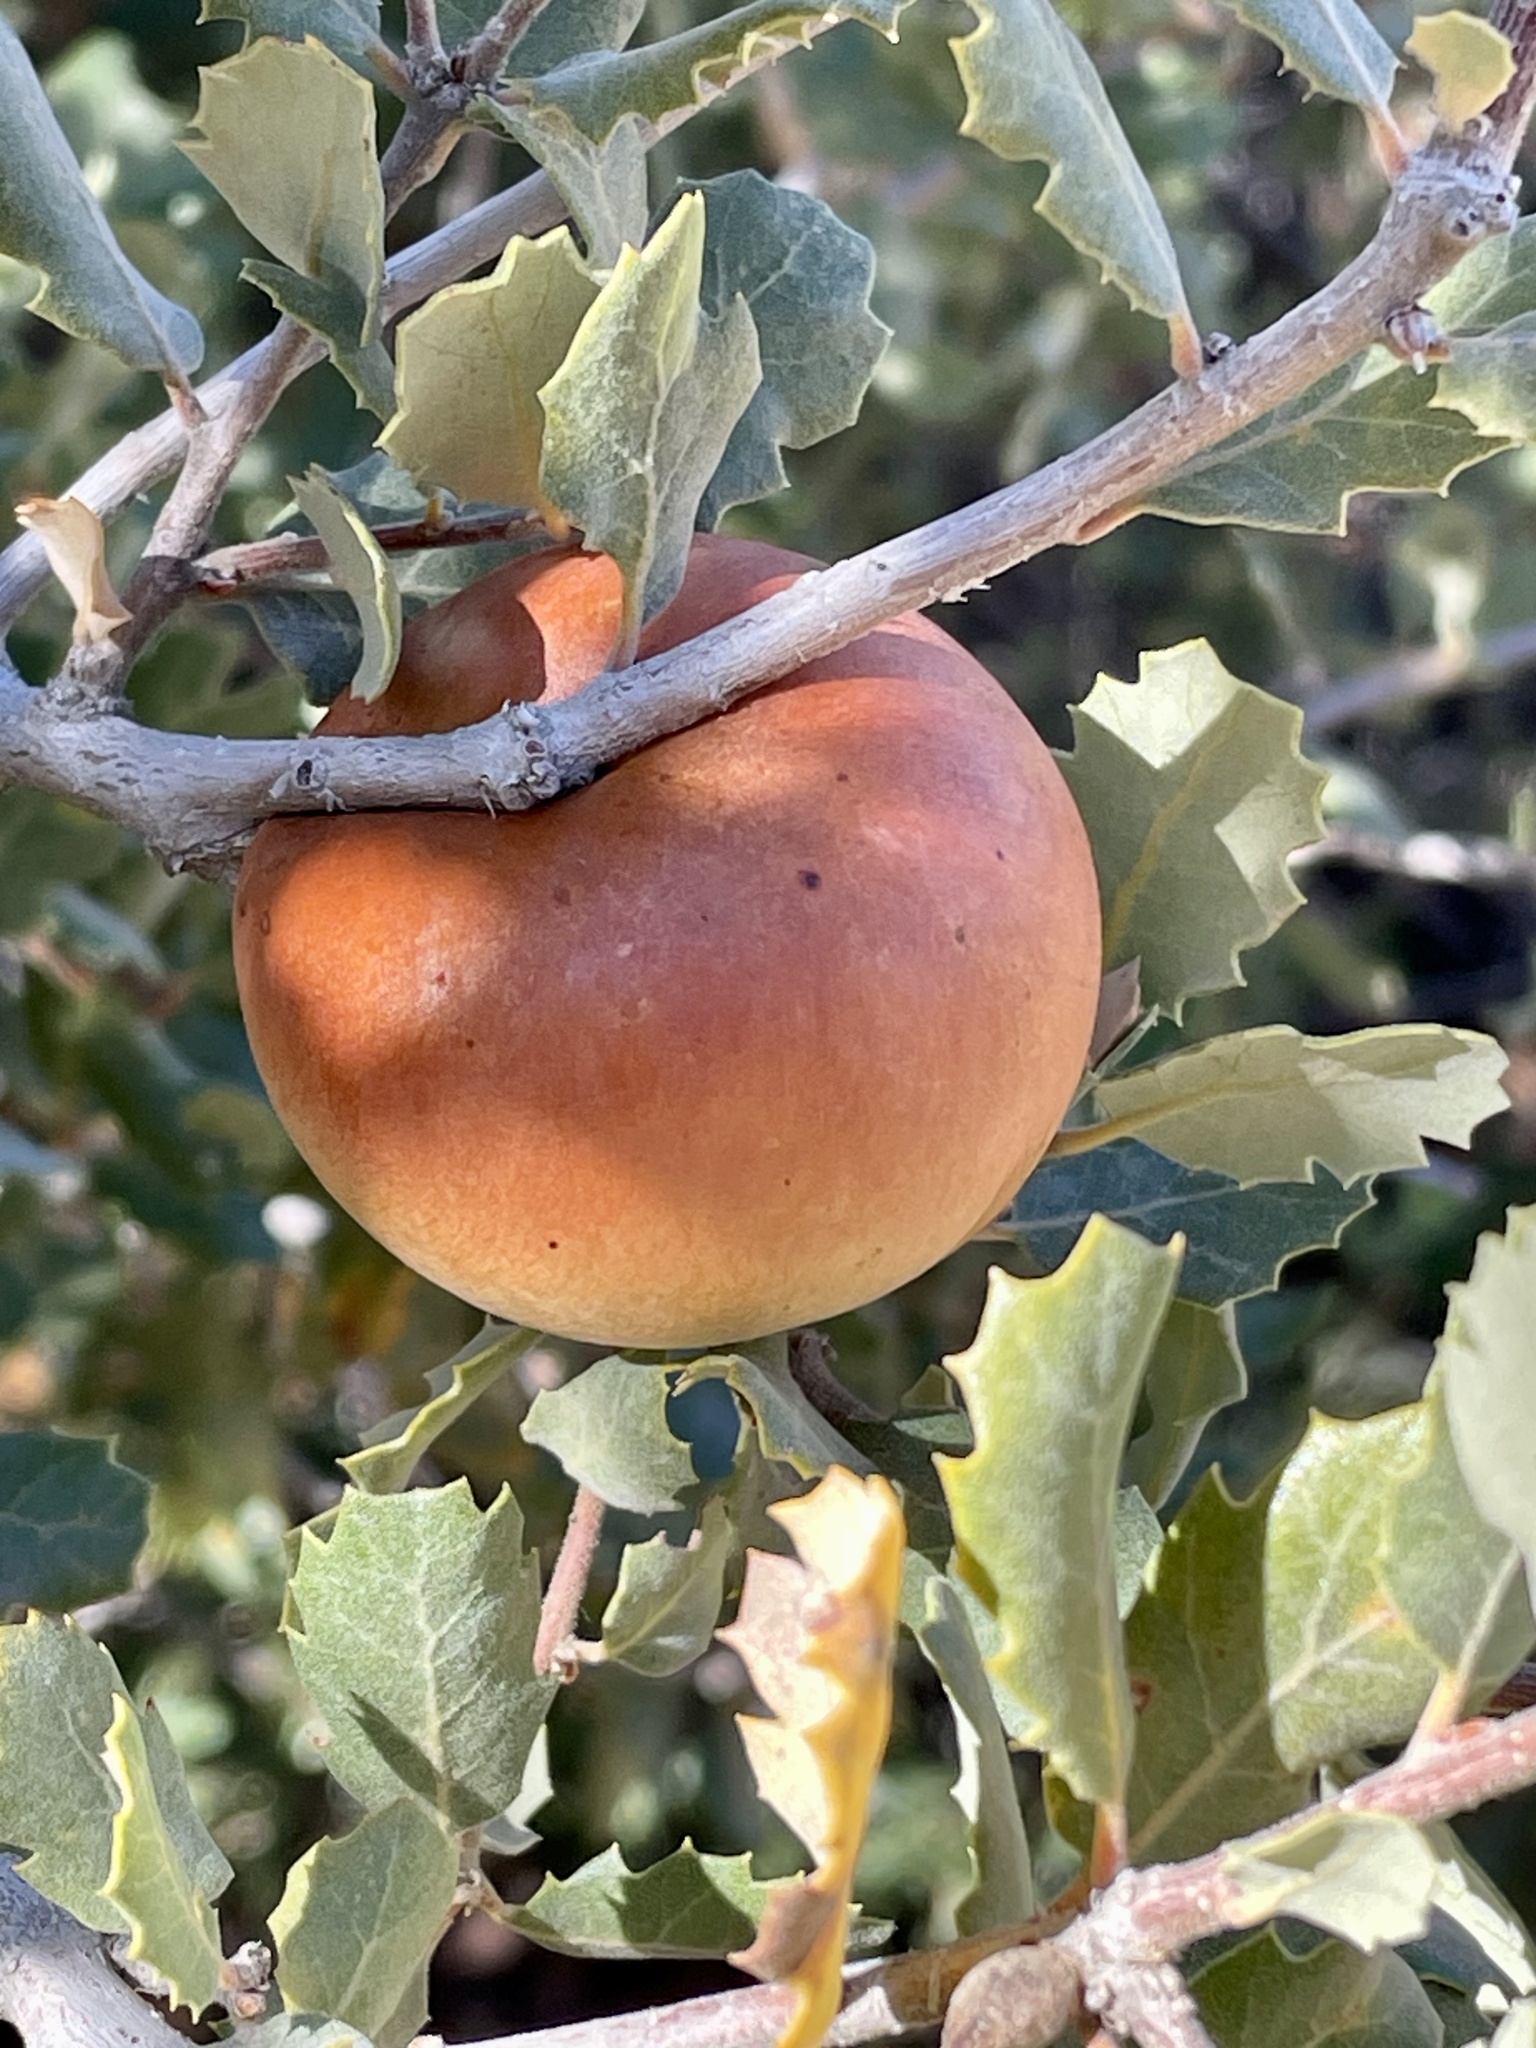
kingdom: Animalia
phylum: Arthropoda
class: Insecta
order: Hymenoptera
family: Cynipidae
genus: Andricus
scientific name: Andricus quercuscalifornicus
